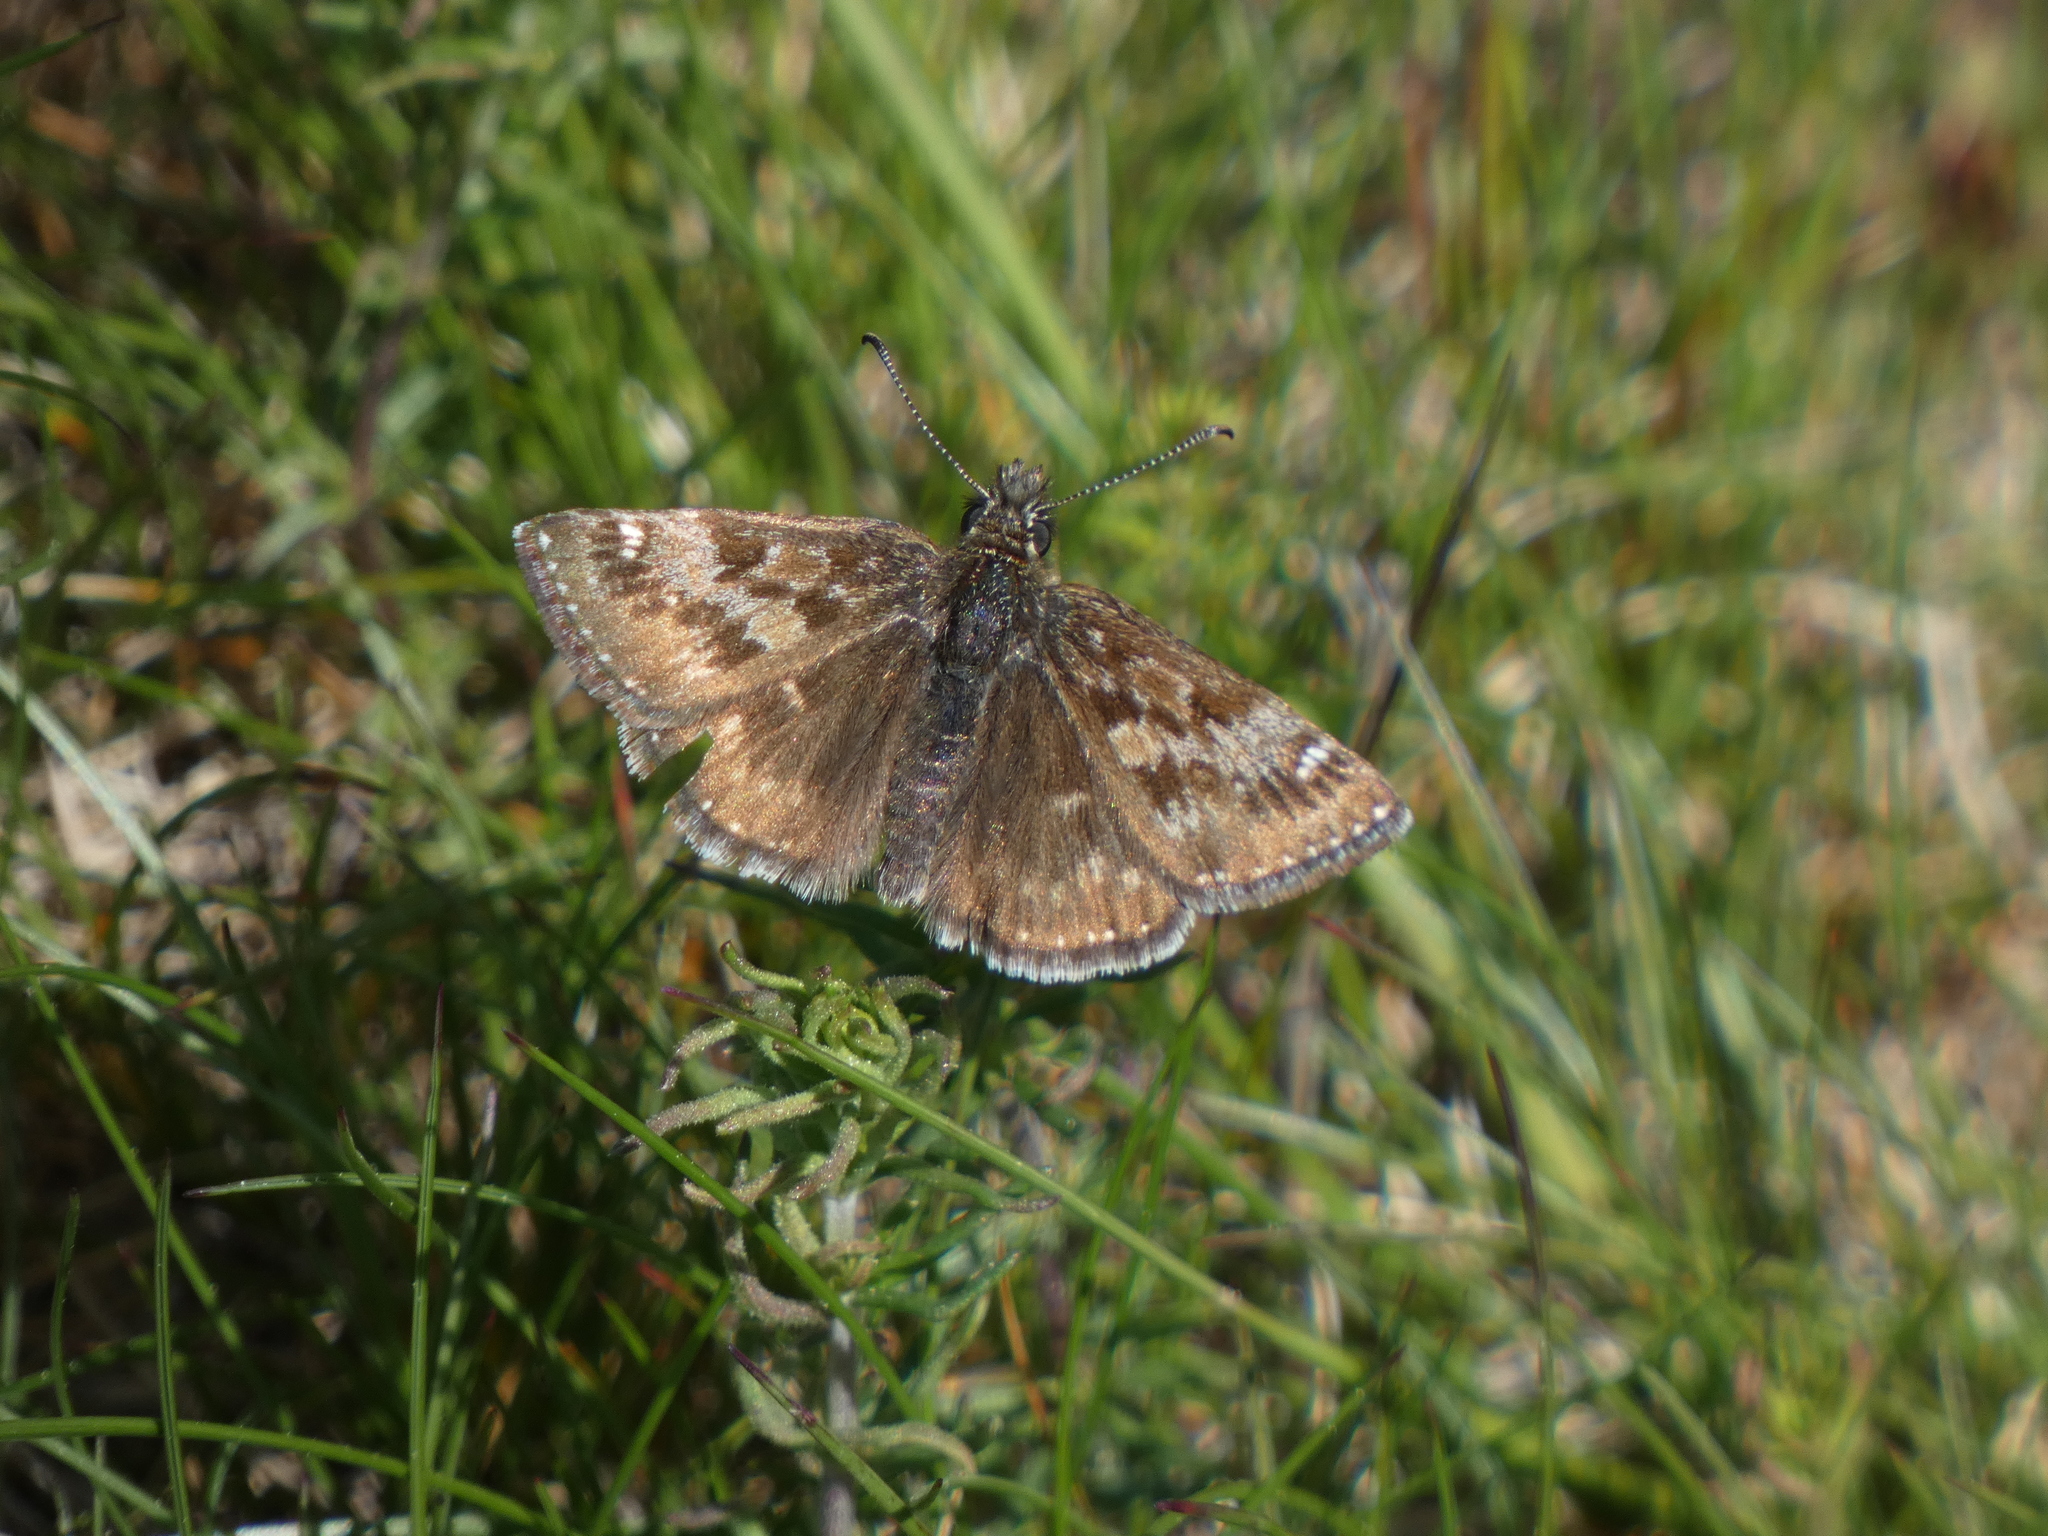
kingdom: Animalia
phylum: Arthropoda
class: Insecta
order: Lepidoptera
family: Hesperiidae
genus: Erynnis
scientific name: Erynnis tages
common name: Dingy skipper
